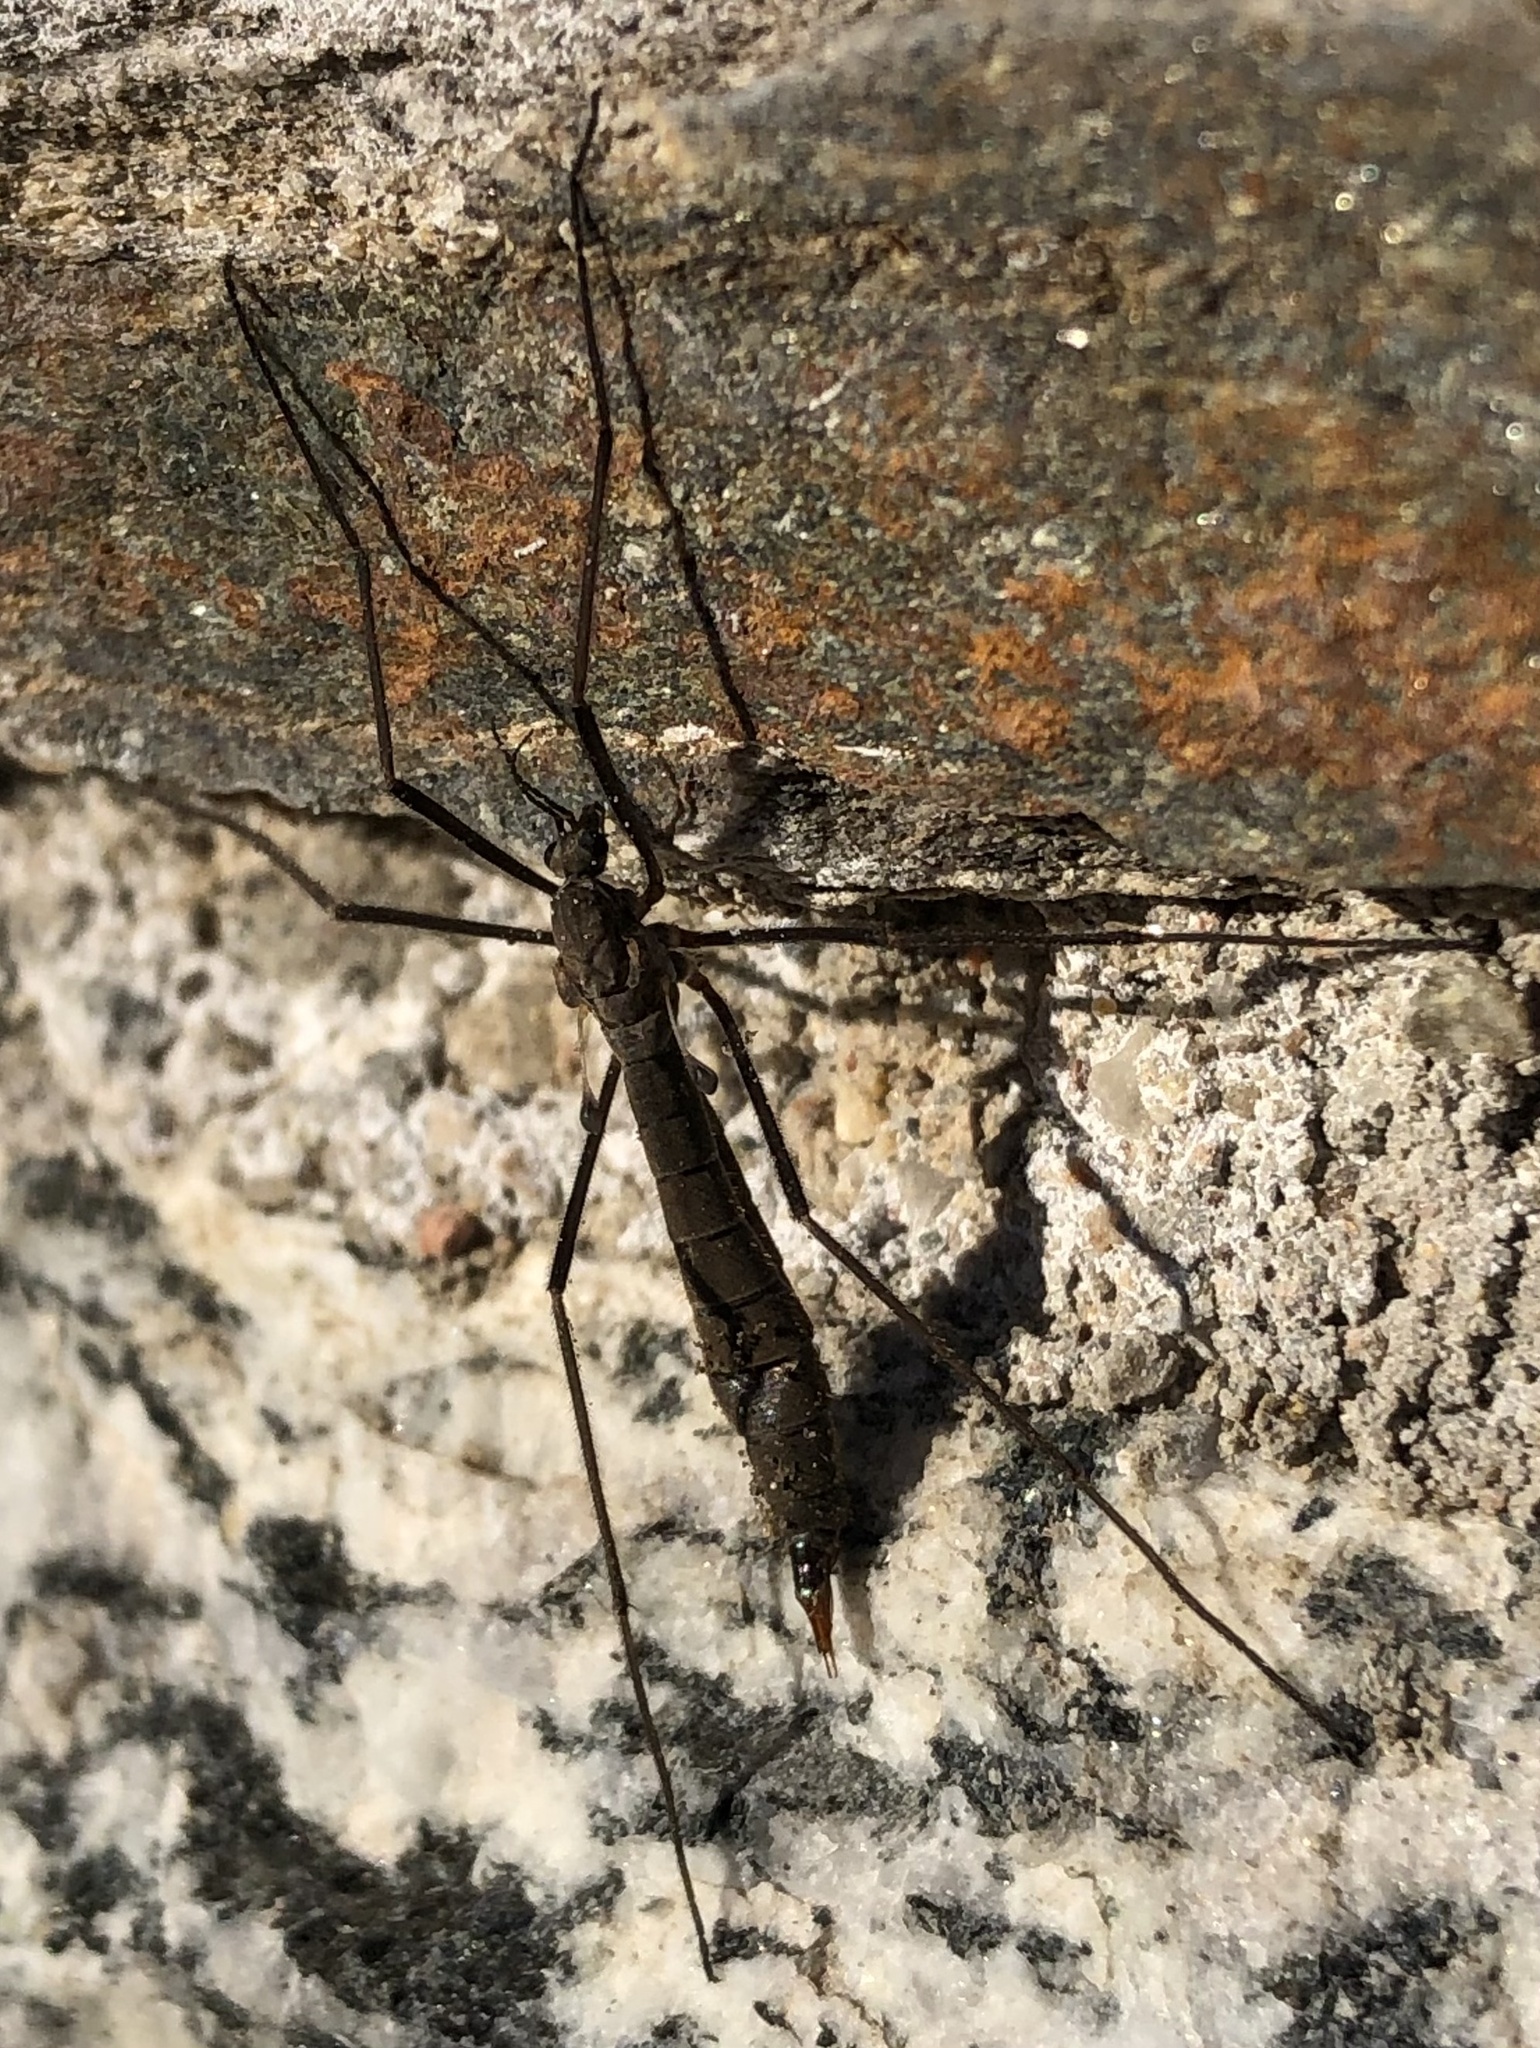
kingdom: Animalia
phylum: Arthropoda
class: Insecta
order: Diptera
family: Tipulidae
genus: Tipula
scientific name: Tipula berteii
